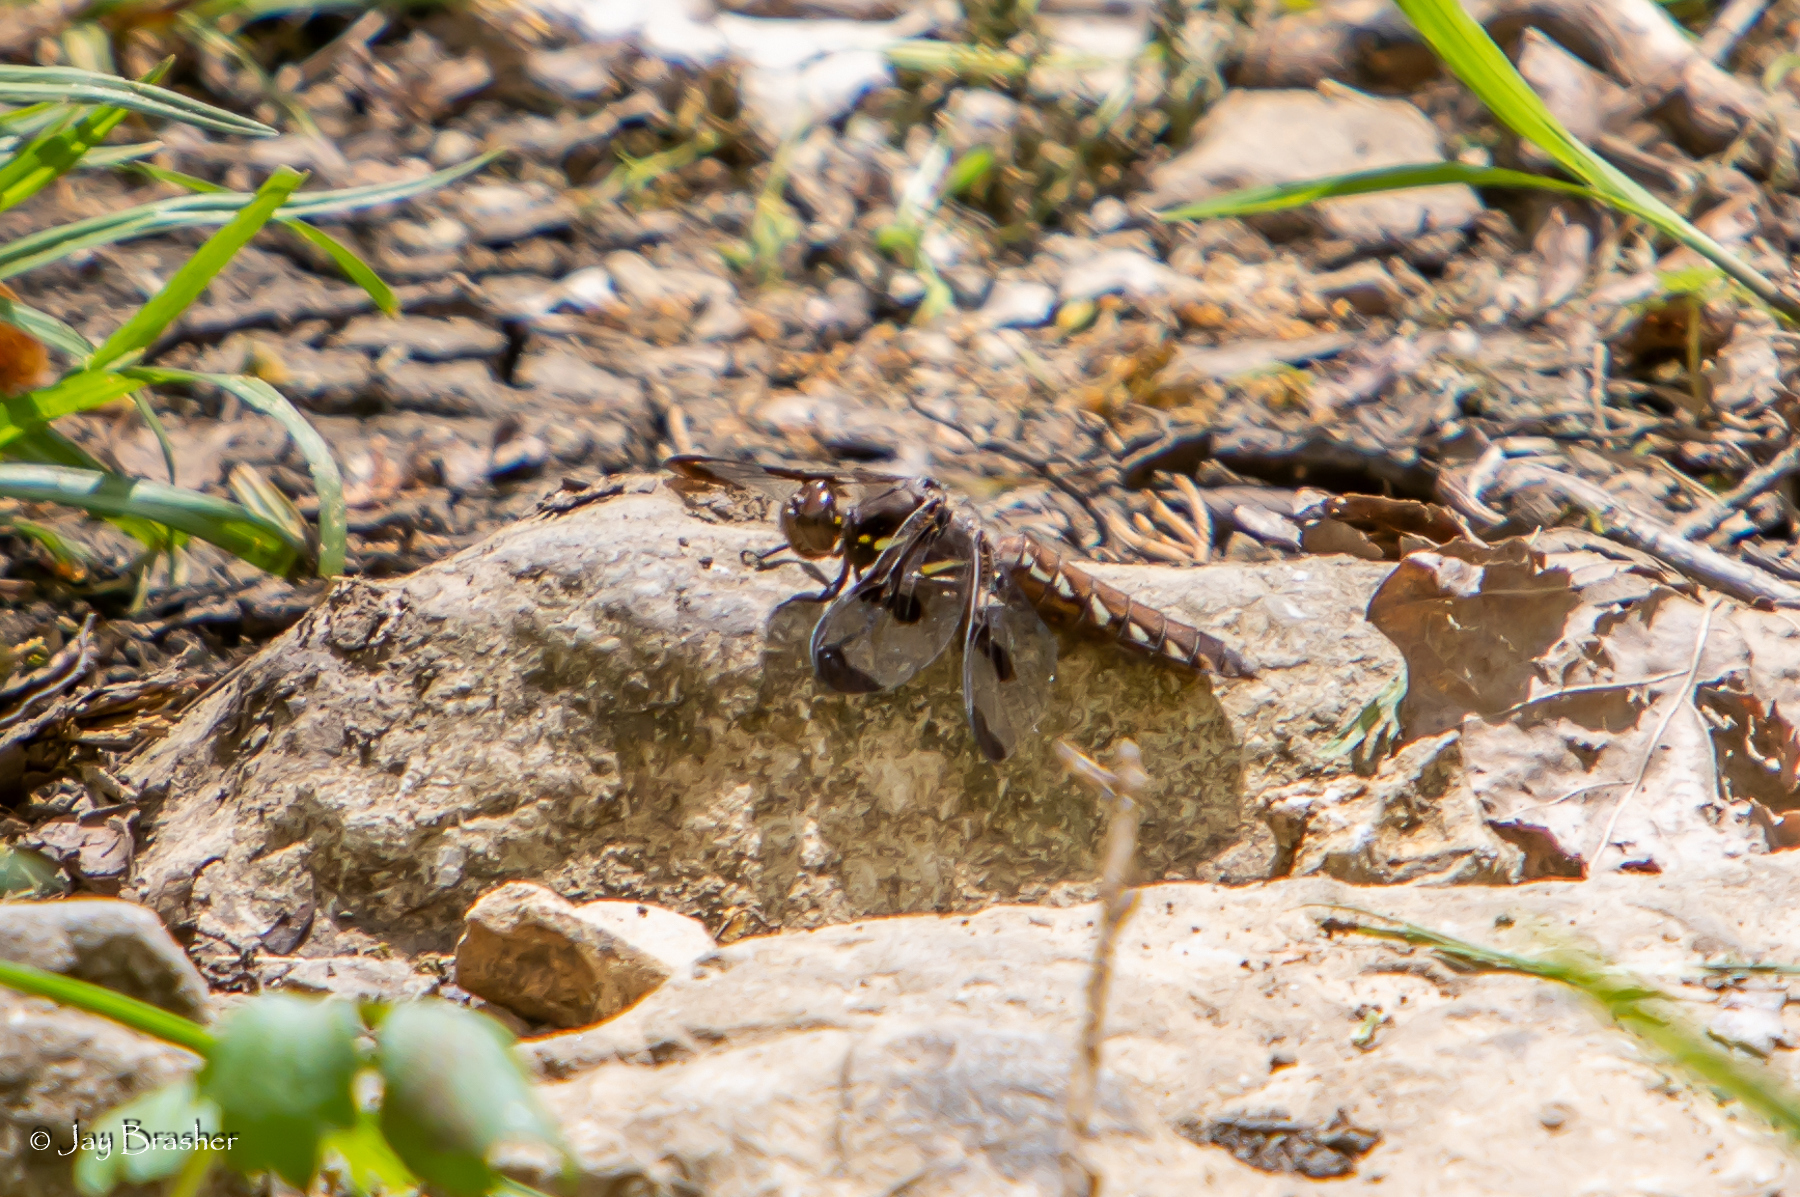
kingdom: Animalia
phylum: Arthropoda
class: Insecta
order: Odonata
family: Libellulidae
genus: Plathemis
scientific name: Plathemis lydia
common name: Common whitetail
